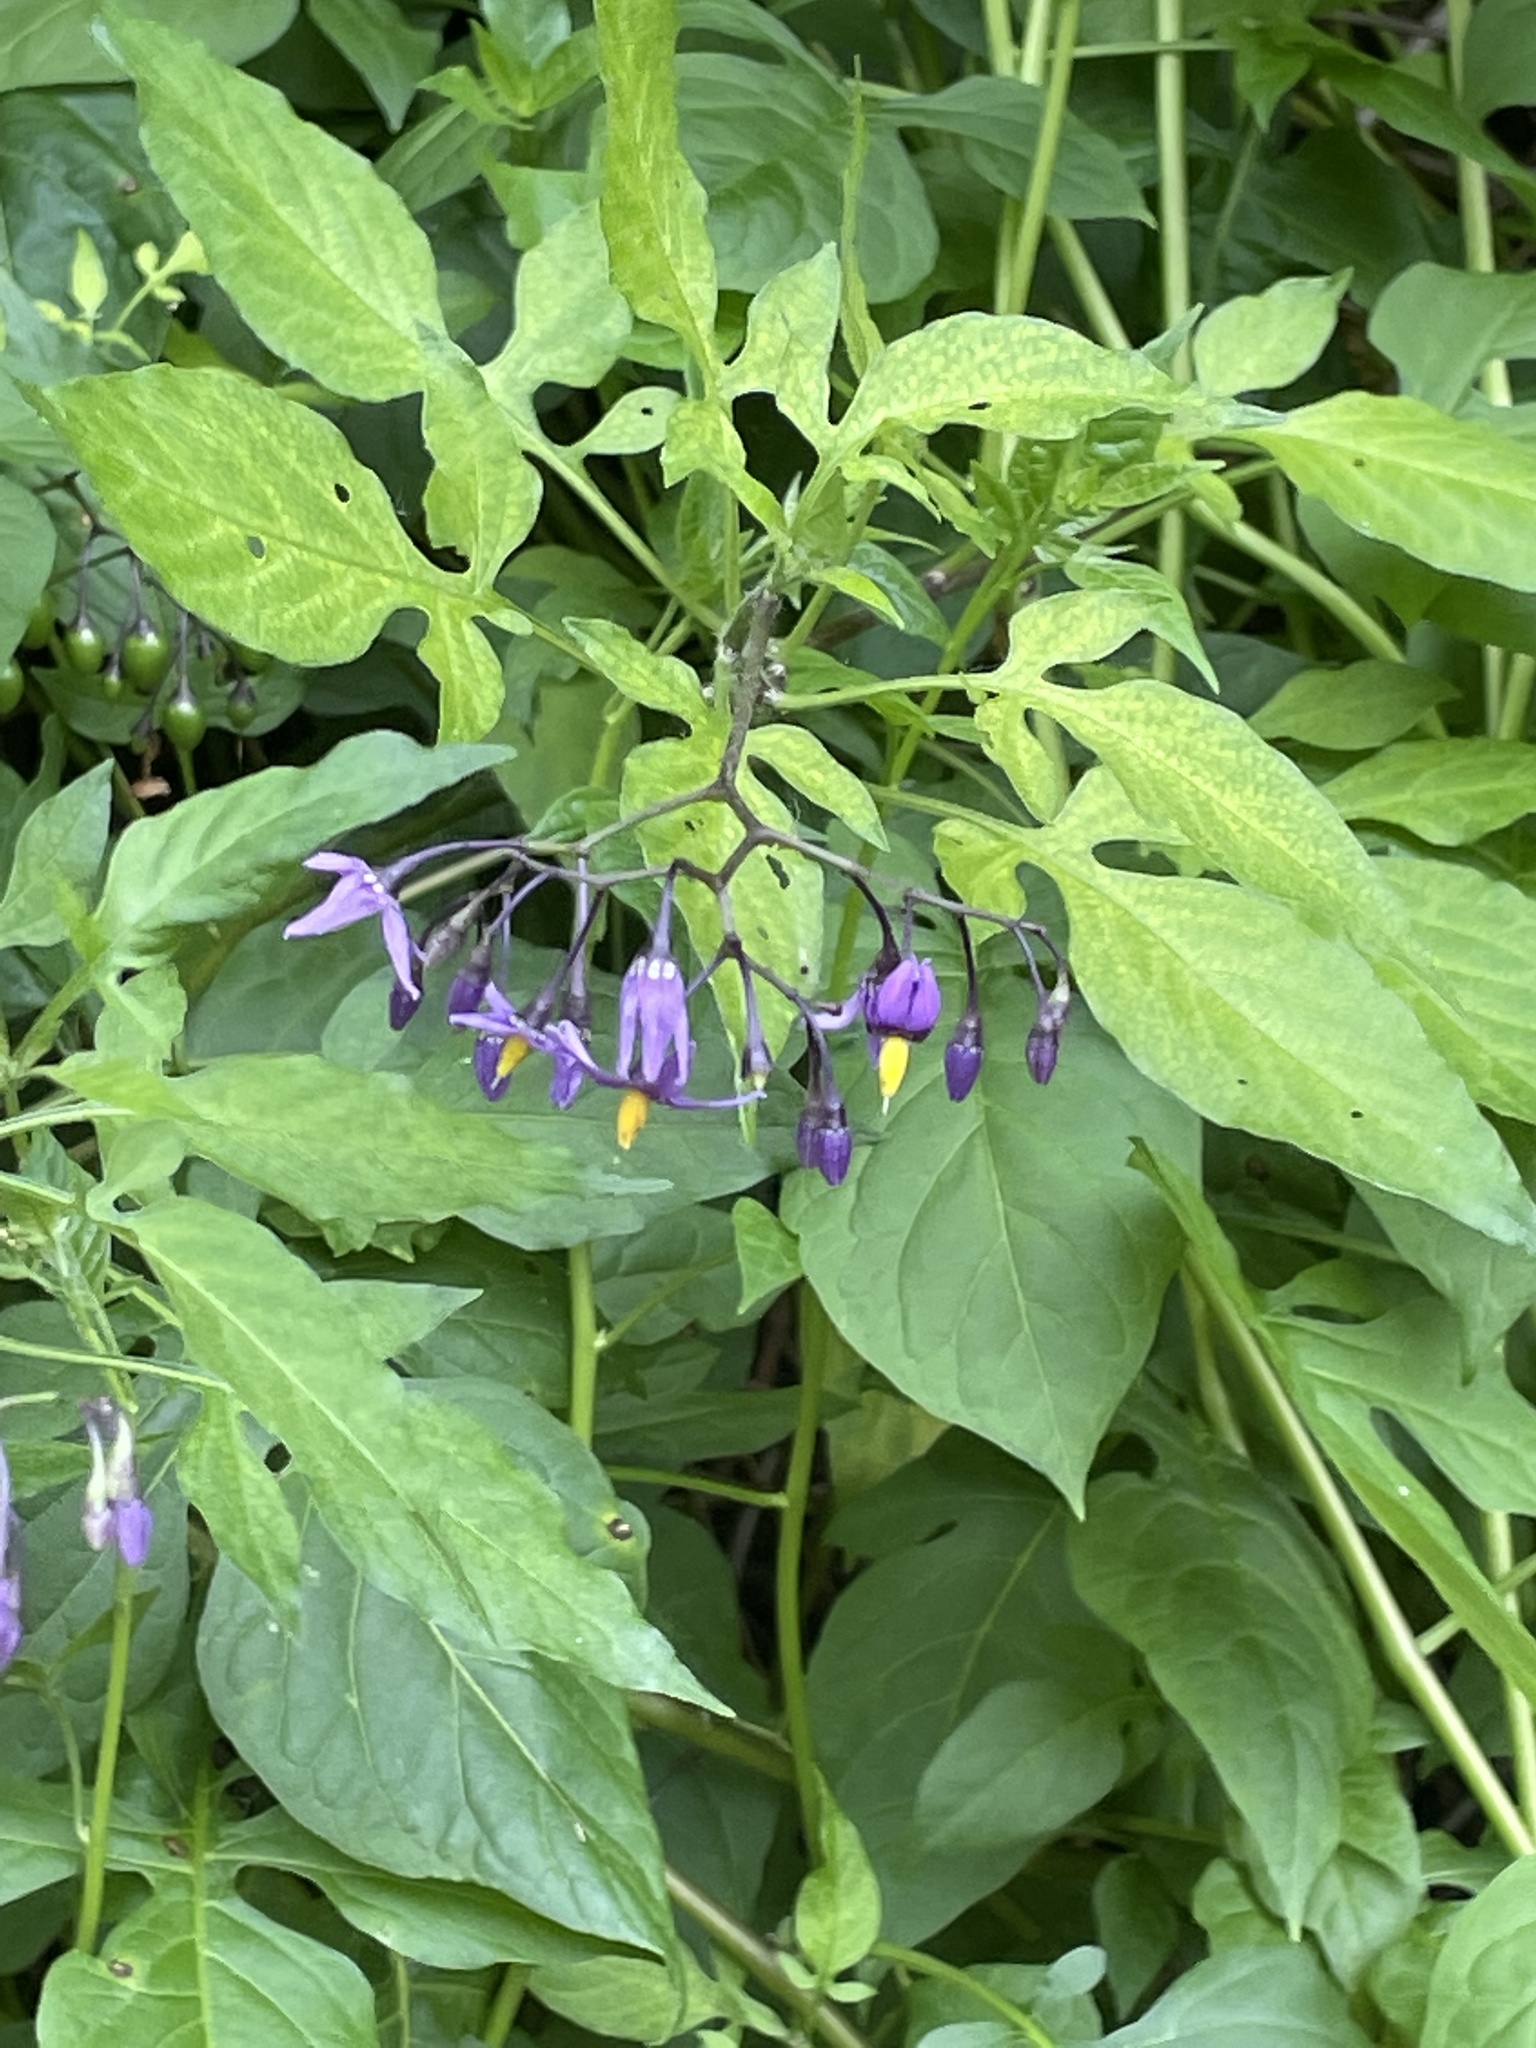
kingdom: Plantae
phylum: Tracheophyta
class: Magnoliopsida
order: Solanales
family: Solanaceae
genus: Solanum
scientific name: Solanum dulcamara
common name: Climbing nightshade
